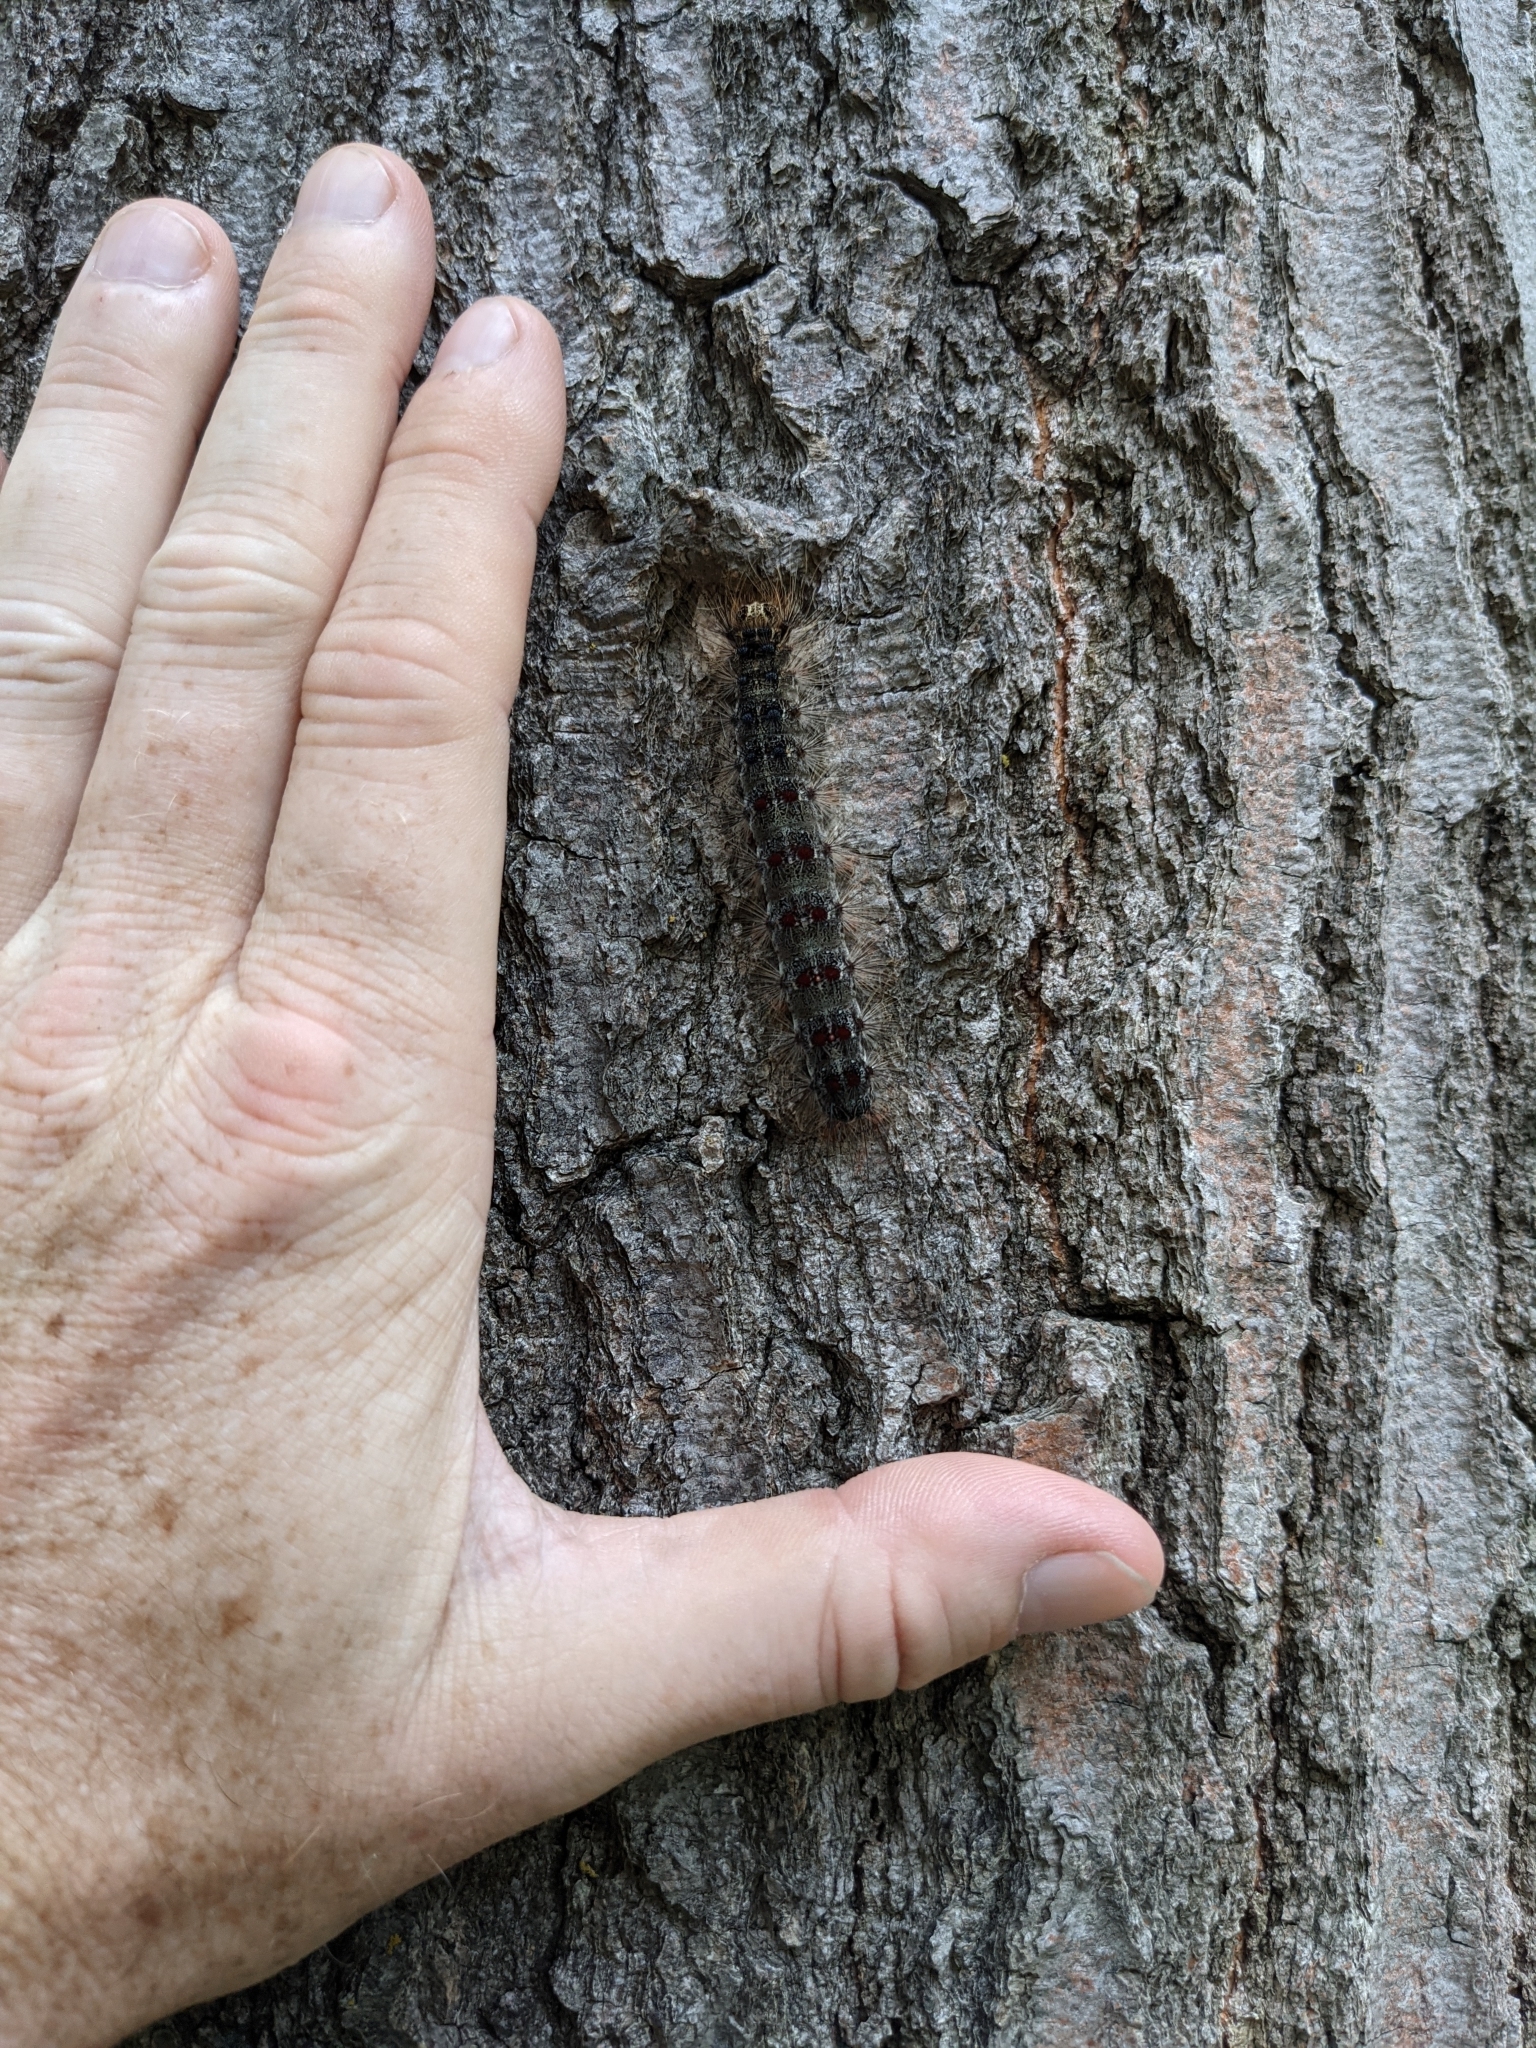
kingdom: Animalia
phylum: Arthropoda
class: Insecta
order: Lepidoptera
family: Erebidae
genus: Lymantria
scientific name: Lymantria dispar
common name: Gypsy moth
